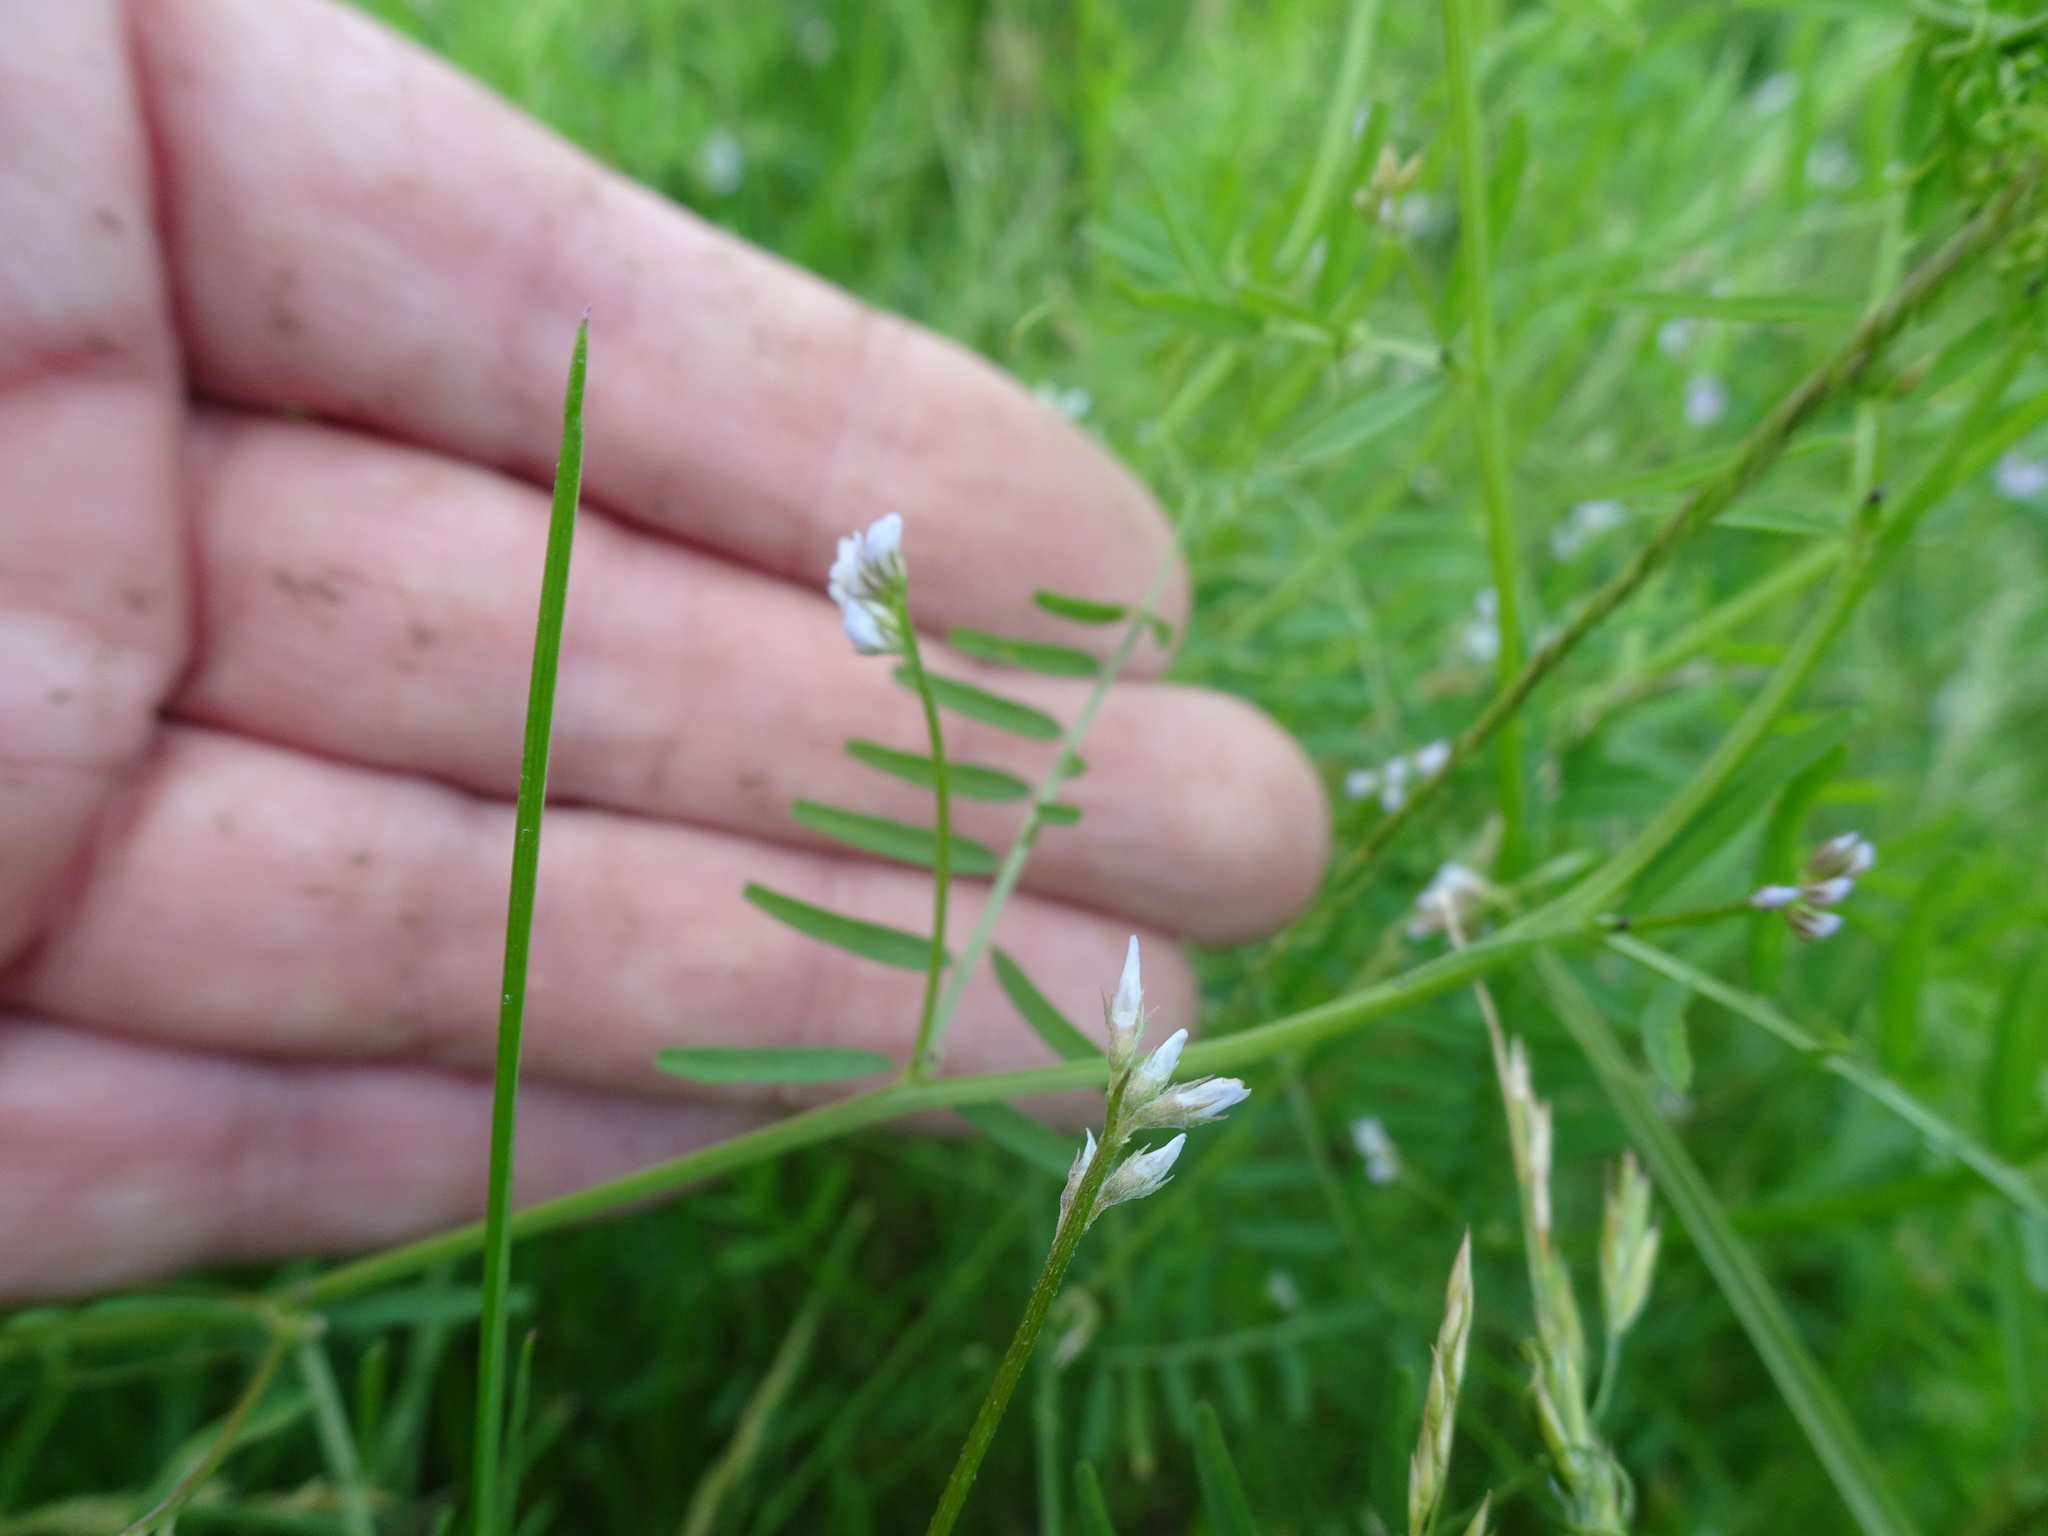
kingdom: Plantae
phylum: Tracheophyta
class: Magnoliopsida
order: Fabales
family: Fabaceae
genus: Vicia
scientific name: Vicia hirsuta
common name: Tiny vetch
